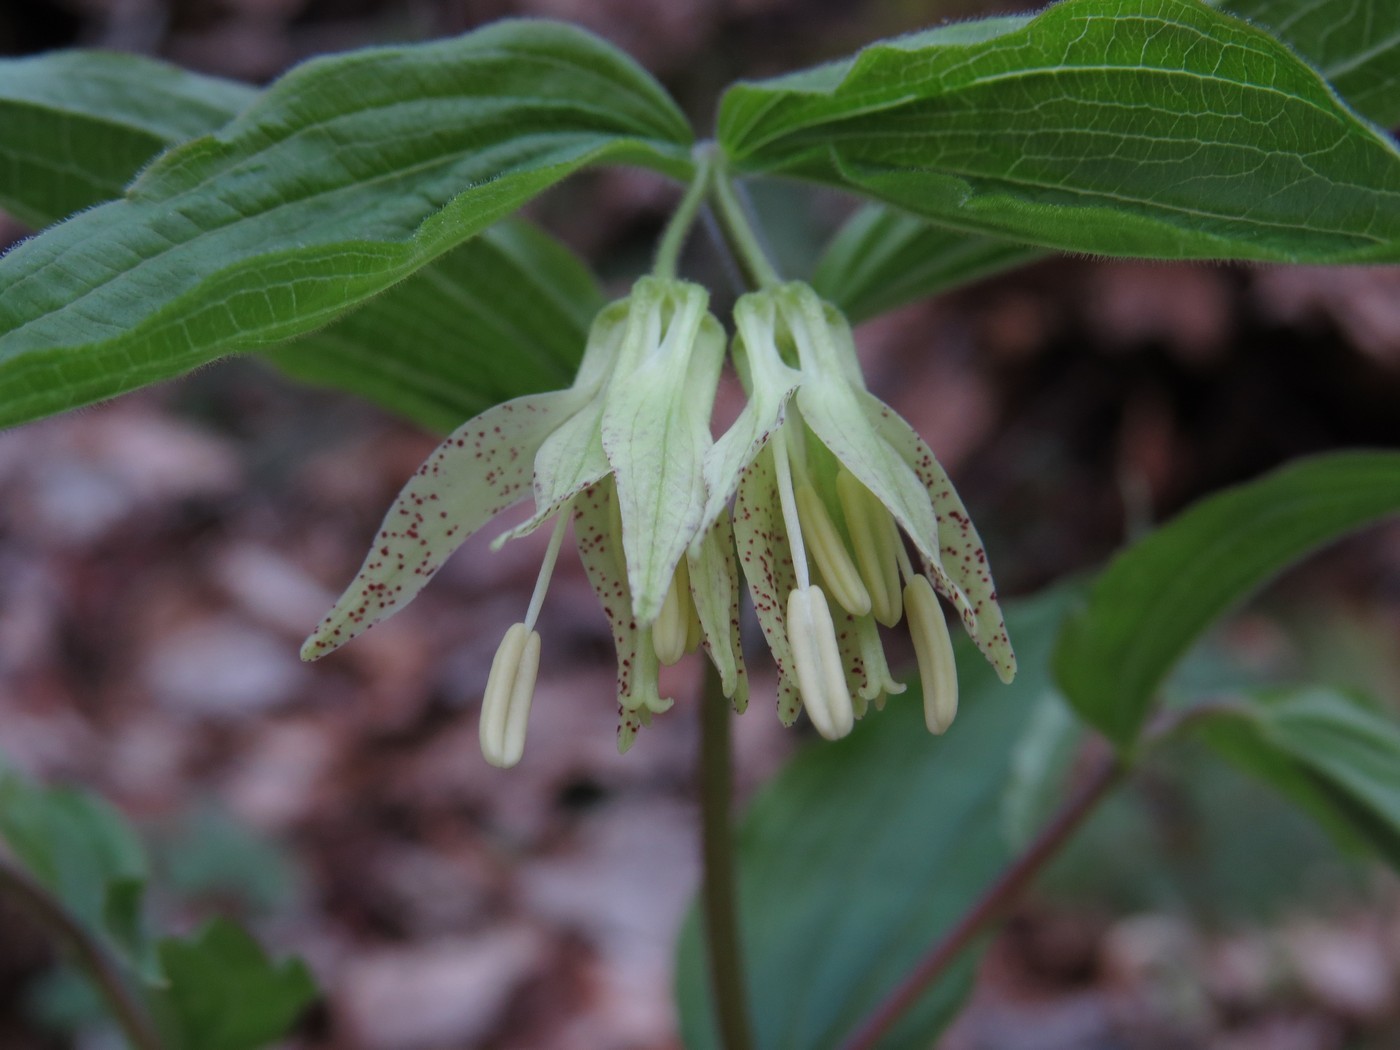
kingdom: Plantae
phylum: Tracheophyta
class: Liliopsida
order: Liliales
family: Liliaceae
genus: Prosartes
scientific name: Prosartes maculata
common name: Yellow mandarin
